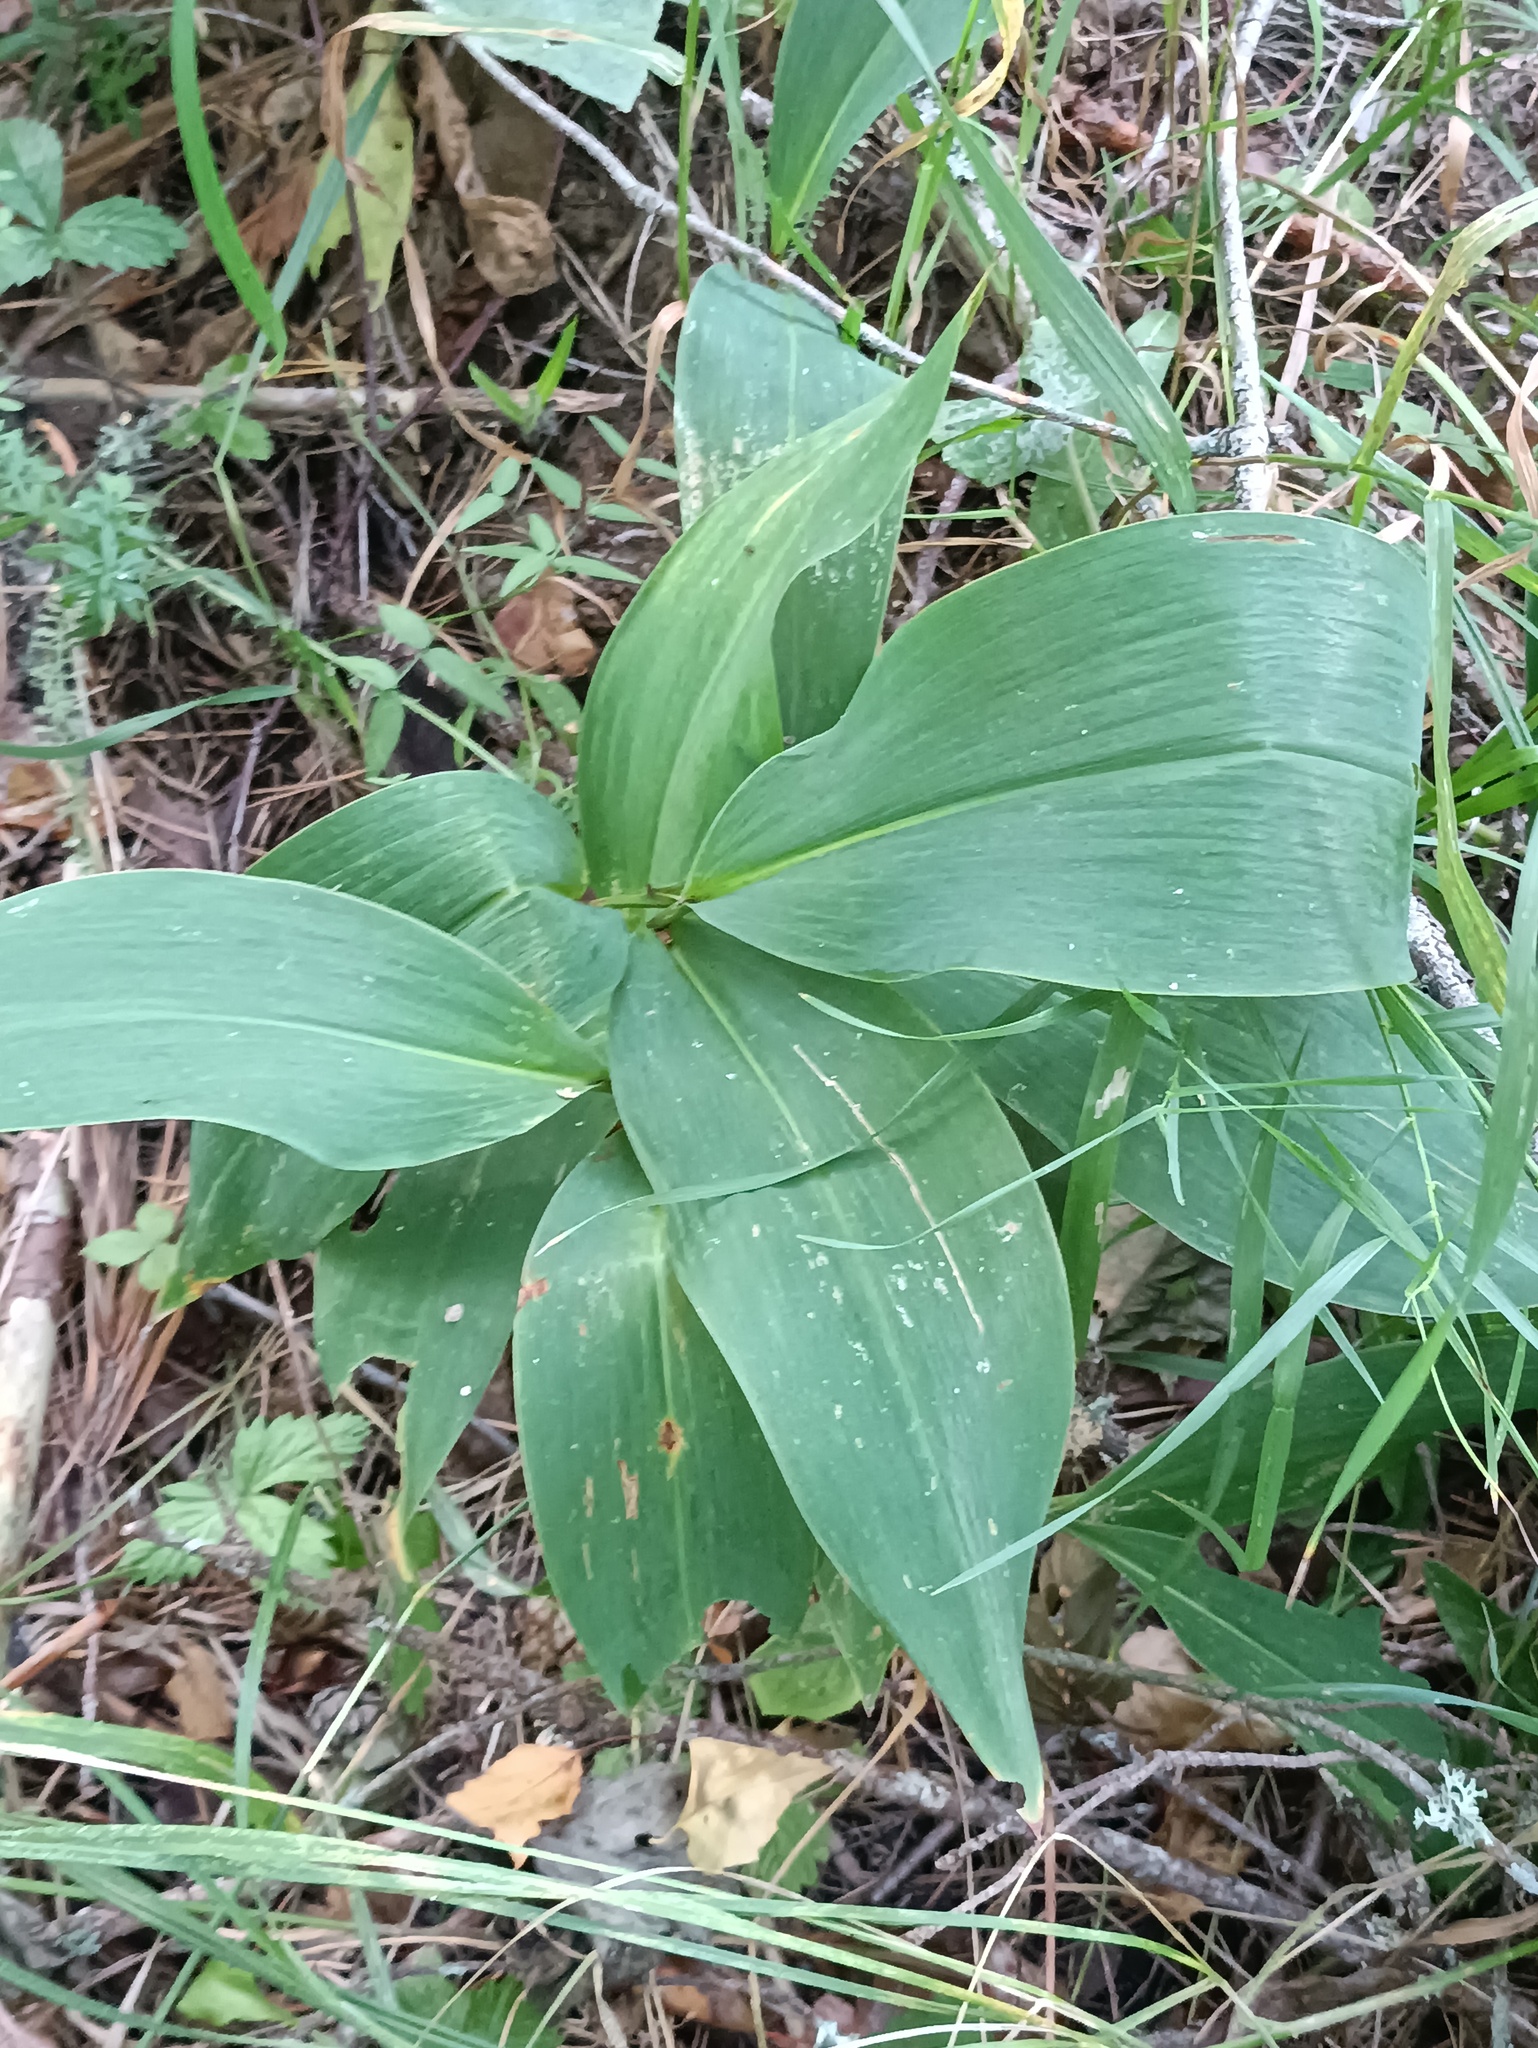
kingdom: Plantae
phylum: Tracheophyta
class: Liliopsida
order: Asparagales
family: Asparagaceae
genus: Convallaria
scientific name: Convallaria majalis
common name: Lily-of-the-valley
